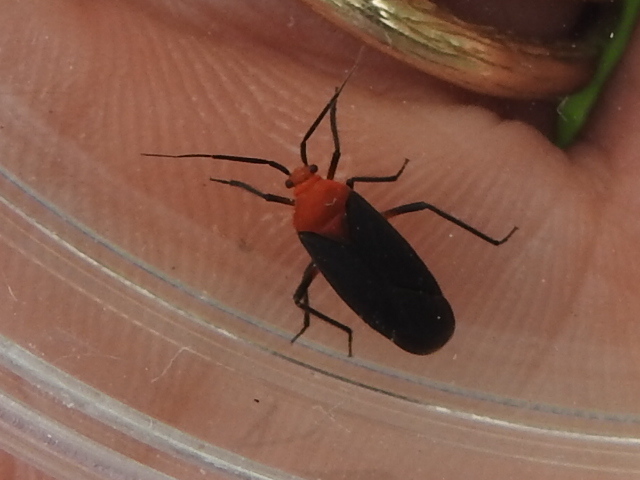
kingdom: Animalia
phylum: Arthropoda
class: Insecta
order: Hemiptera
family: Miridae
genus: Prepops
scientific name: Prepops atripennis
